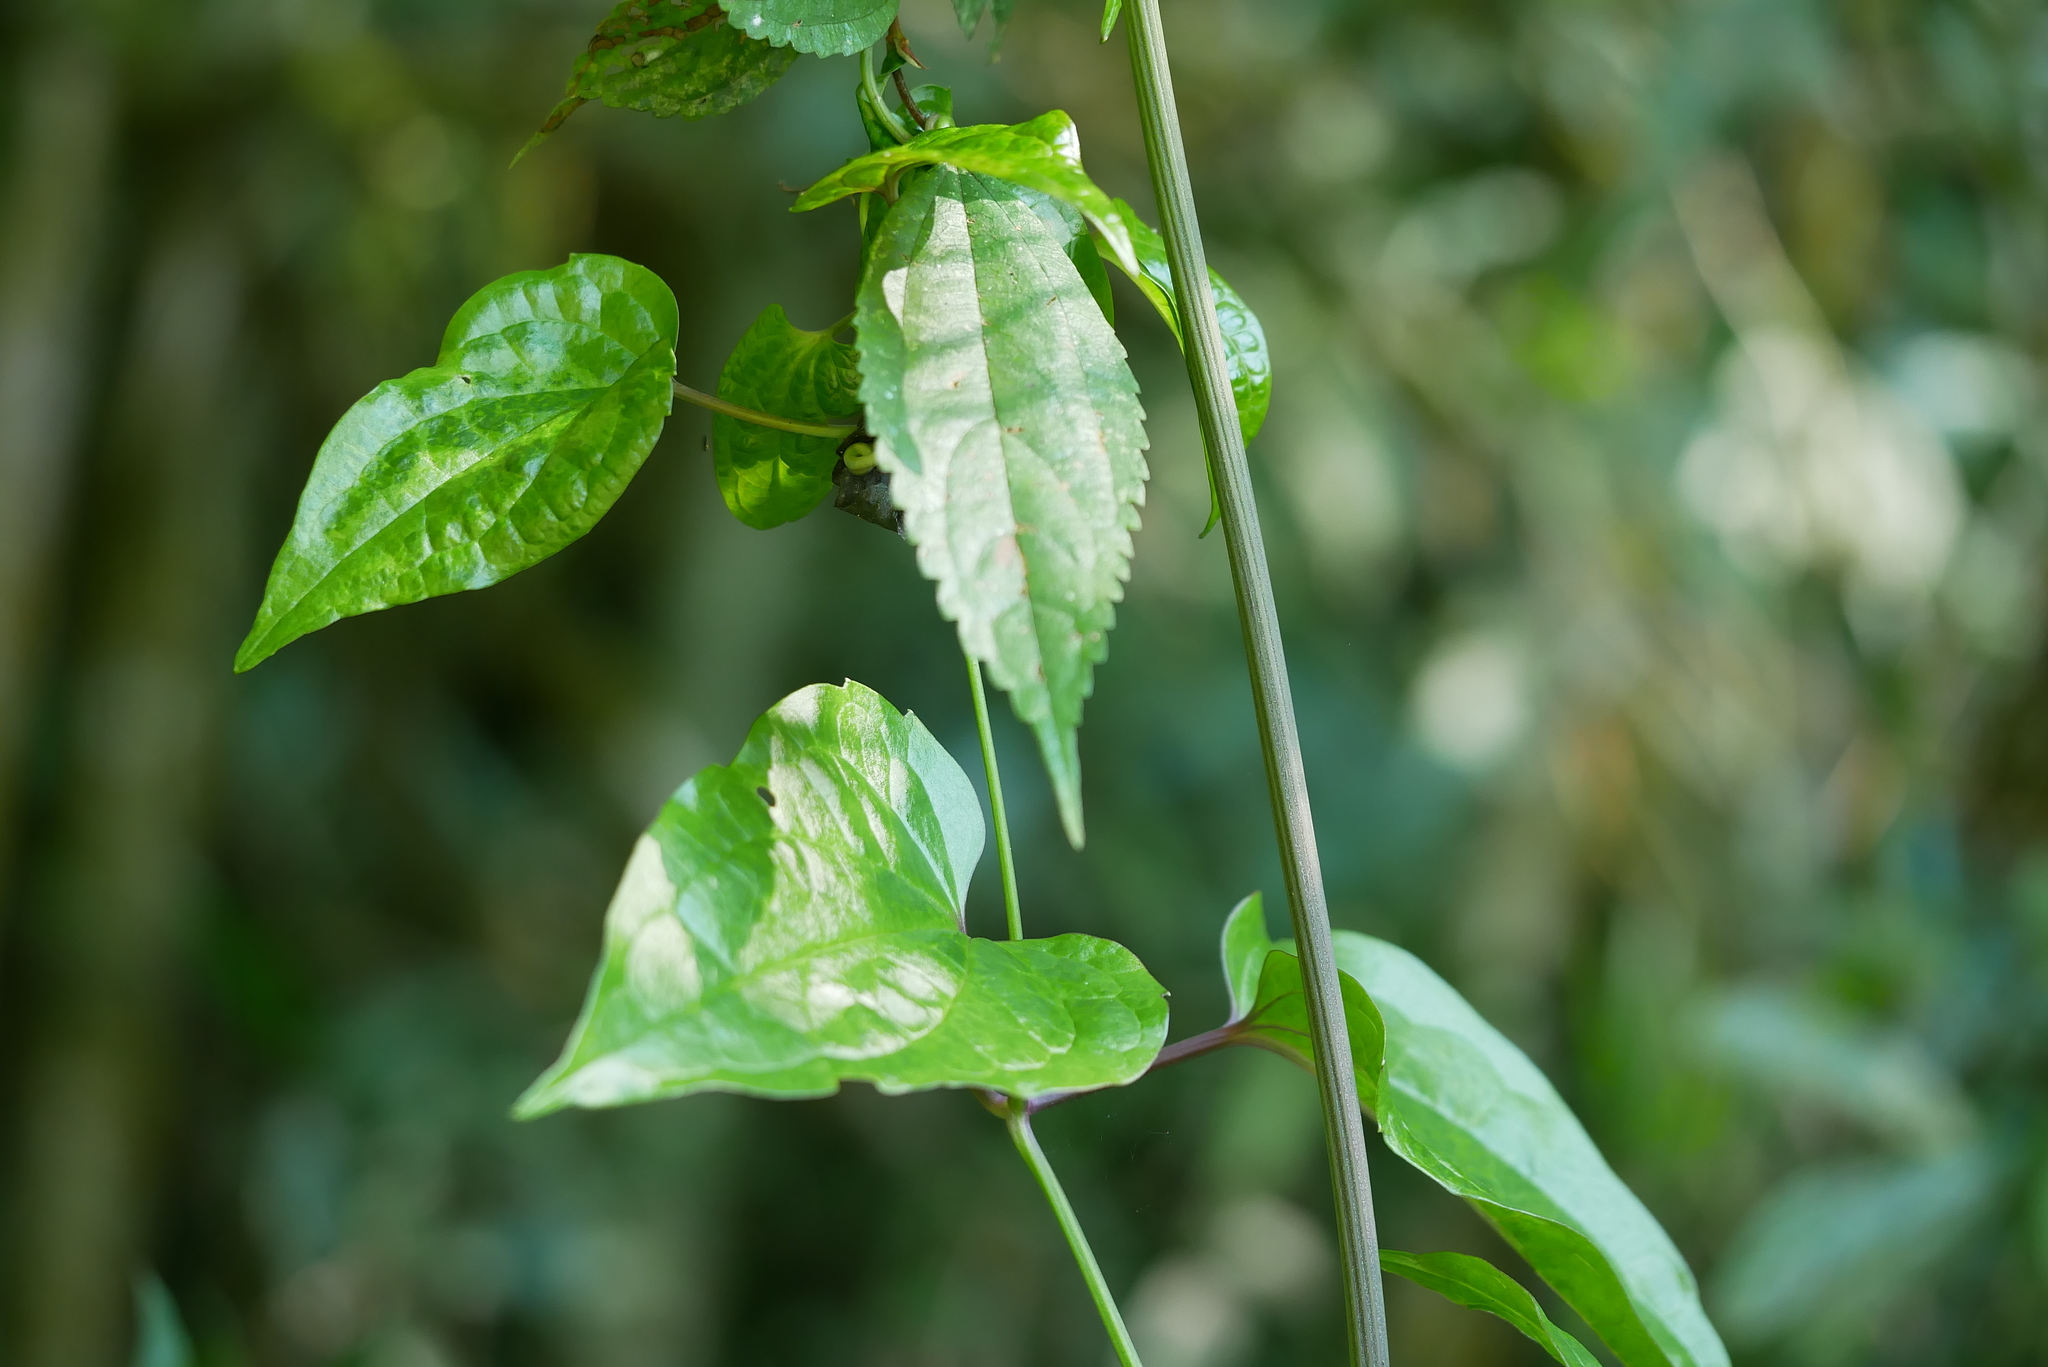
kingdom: Plantae
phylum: Tracheophyta
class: Magnoliopsida
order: Ranunculales
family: Ranunculaceae
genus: Clematis
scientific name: Clematis tashiroi
